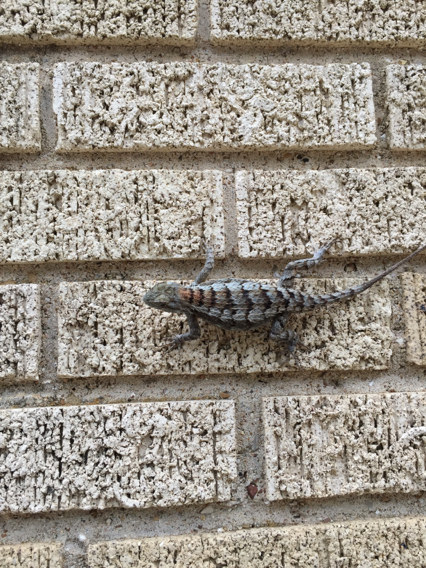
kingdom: Animalia
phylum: Chordata
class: Squamata
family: Phrynosomatidae
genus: Sceloporus
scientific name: Sceloporus olivaceus
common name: Texas spiny lizard
